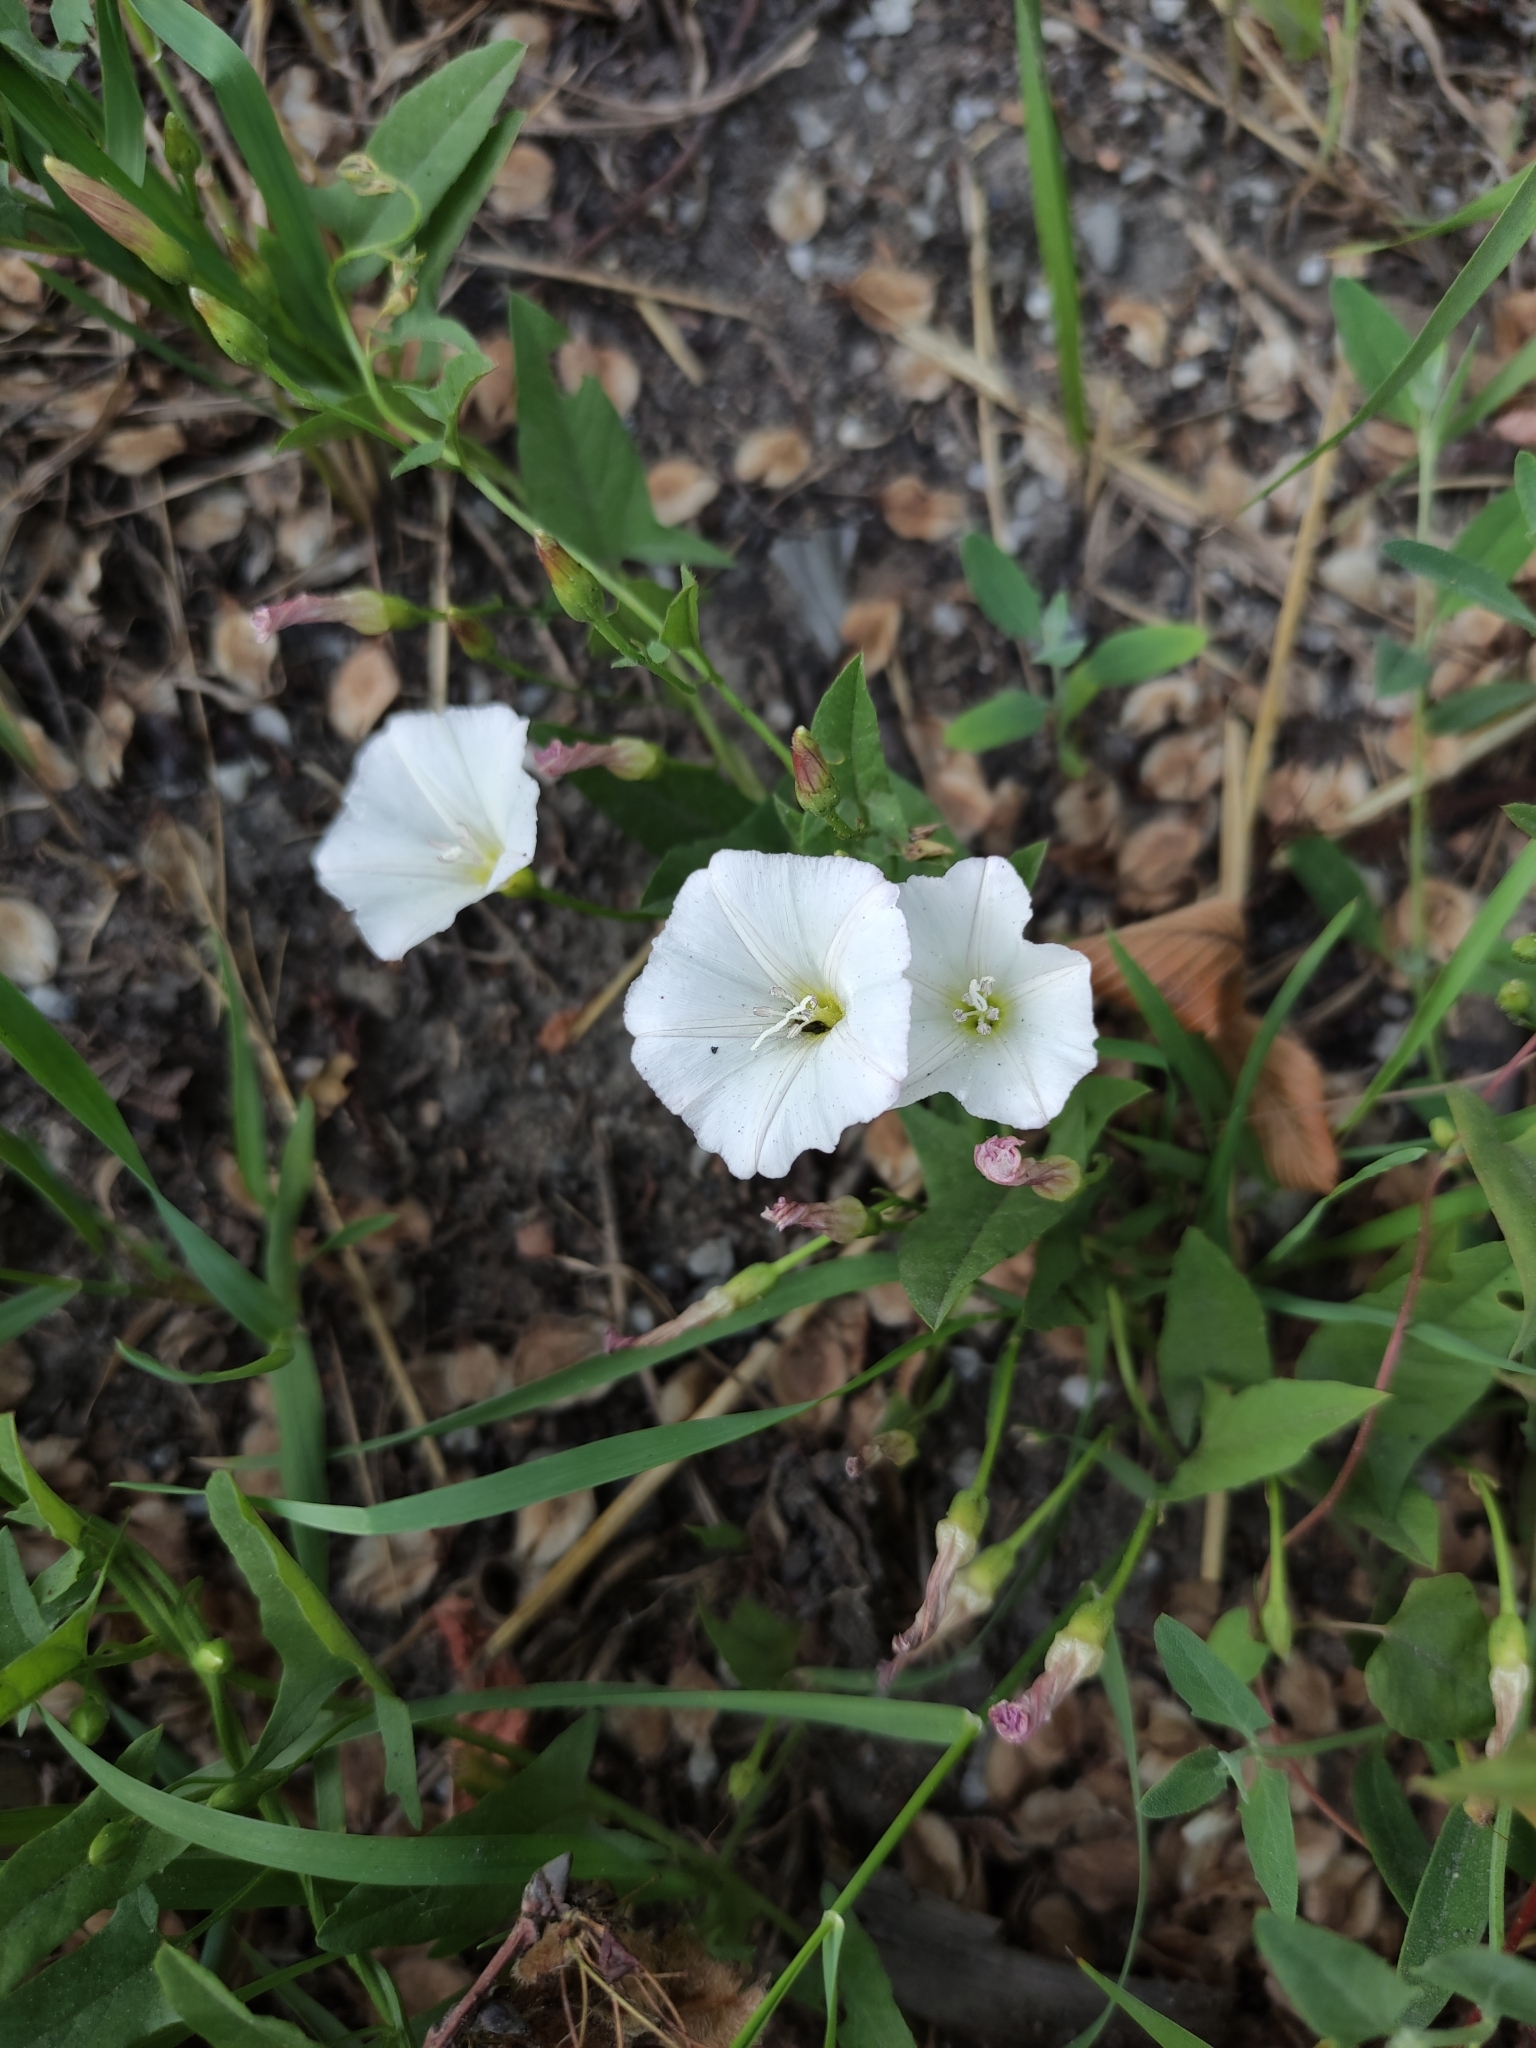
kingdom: Plantae
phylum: Tracheophyta
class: Magnoliopsida
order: Solanales
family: Convolvulaceae
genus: Convolvulus
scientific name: Convolvulus arvensis
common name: Field bindweed
